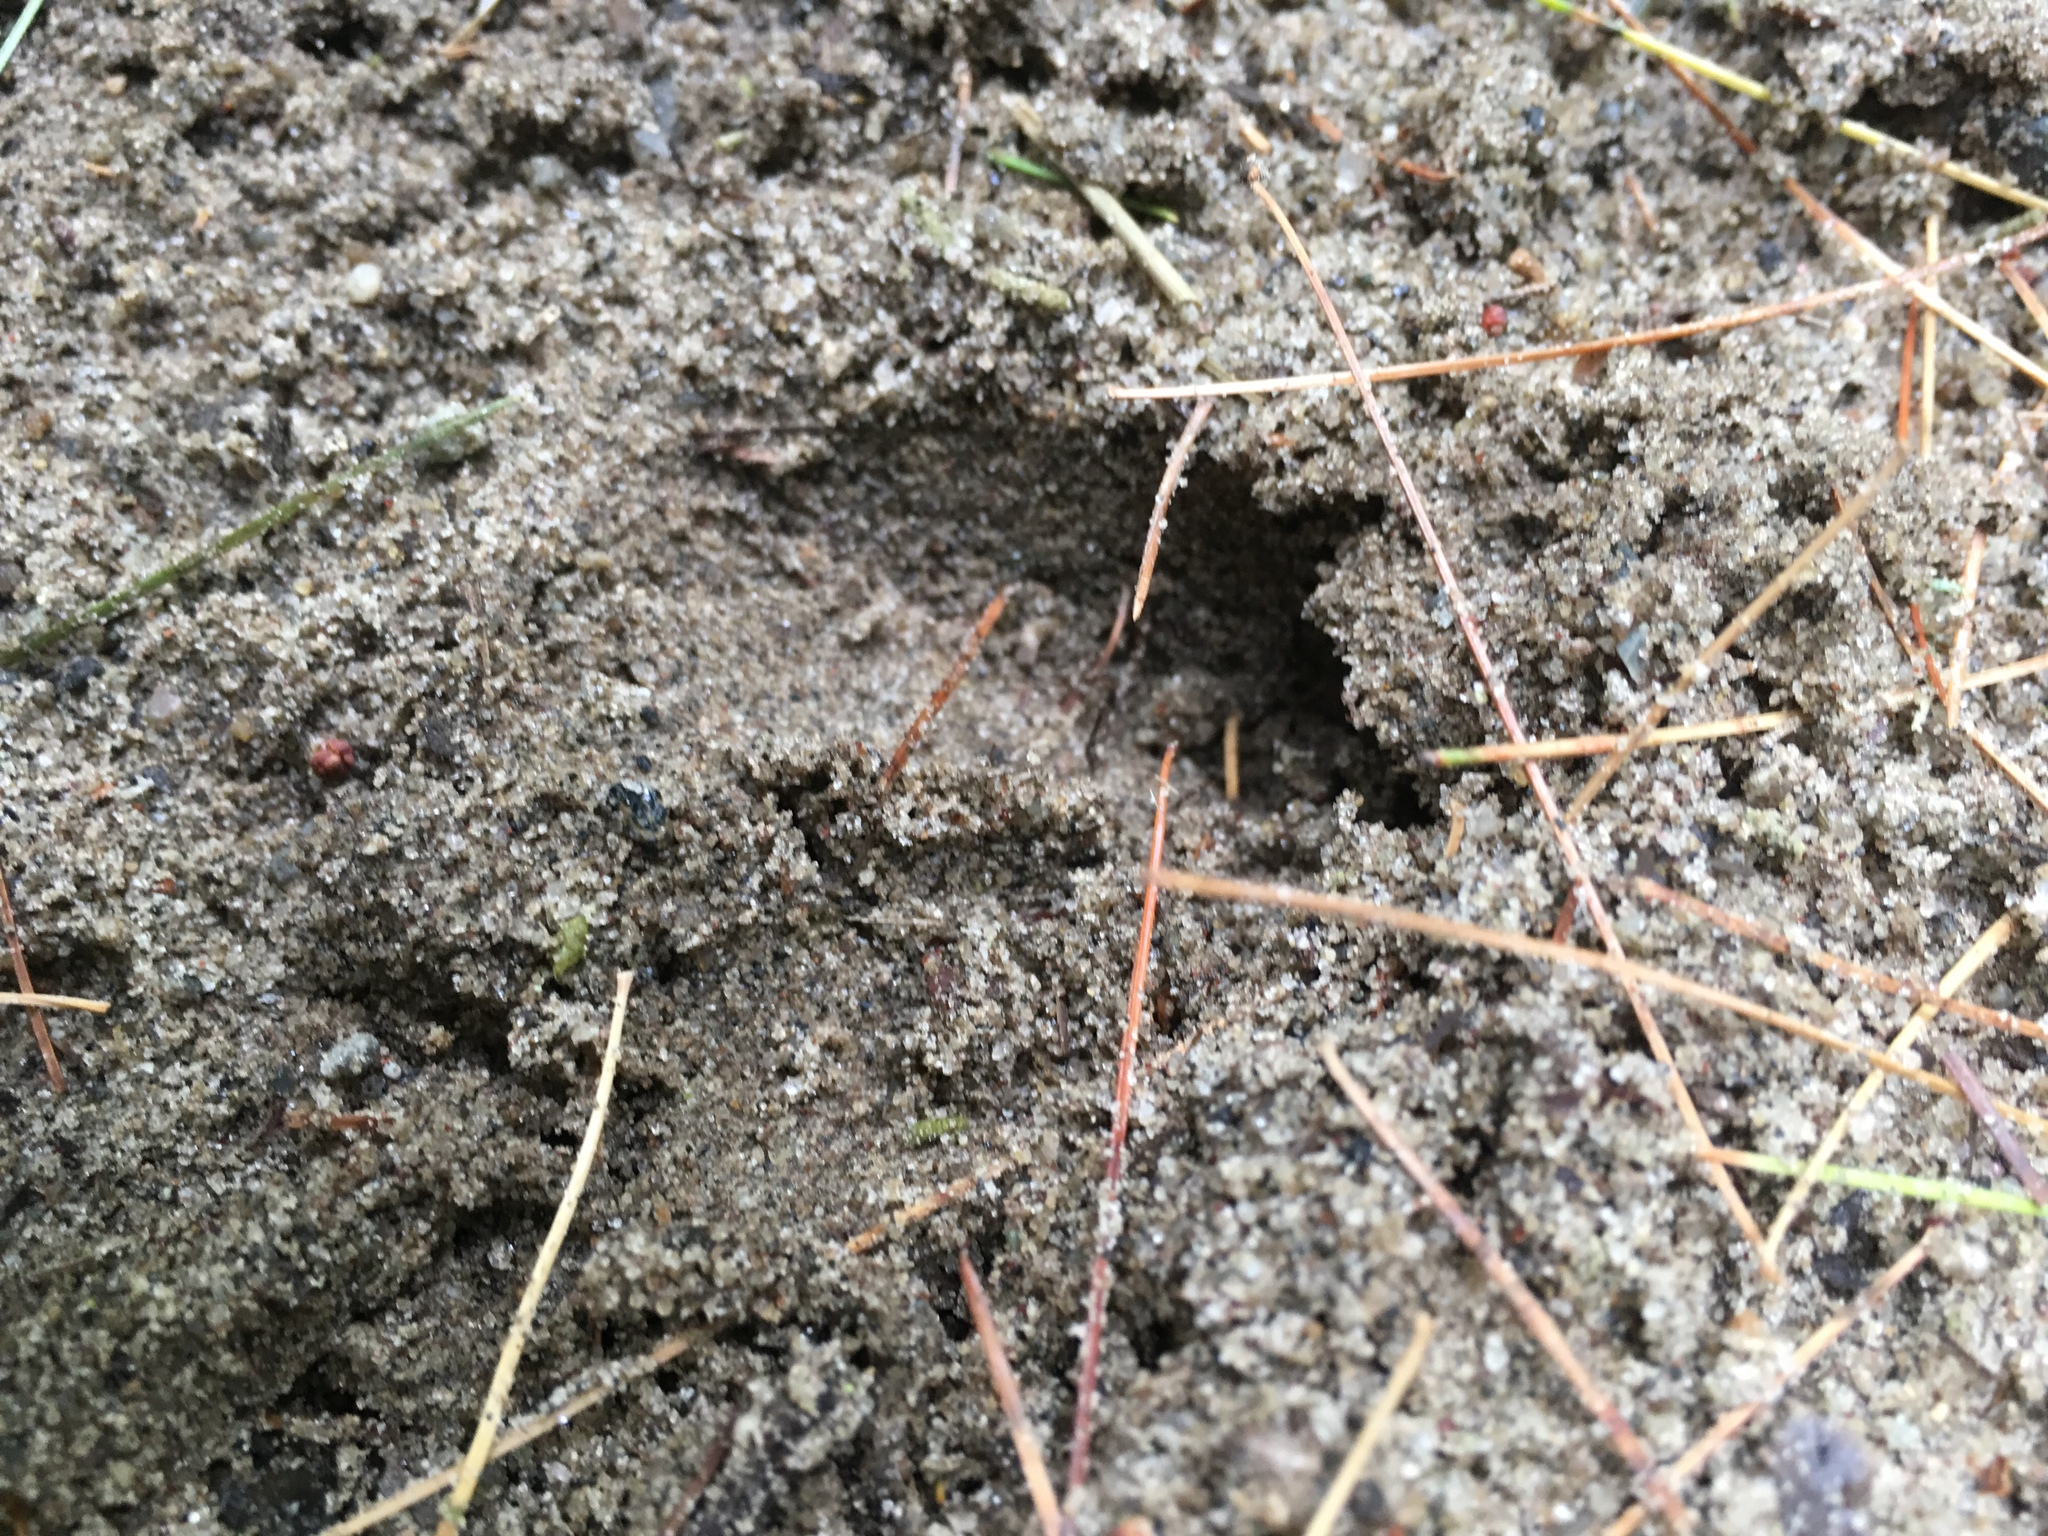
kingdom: Animalia
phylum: Chordata
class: Mammalia
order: Artiodactyla
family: Cervidae
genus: Odocoileus
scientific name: Odocoileus virginianus
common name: White-tailed deer
